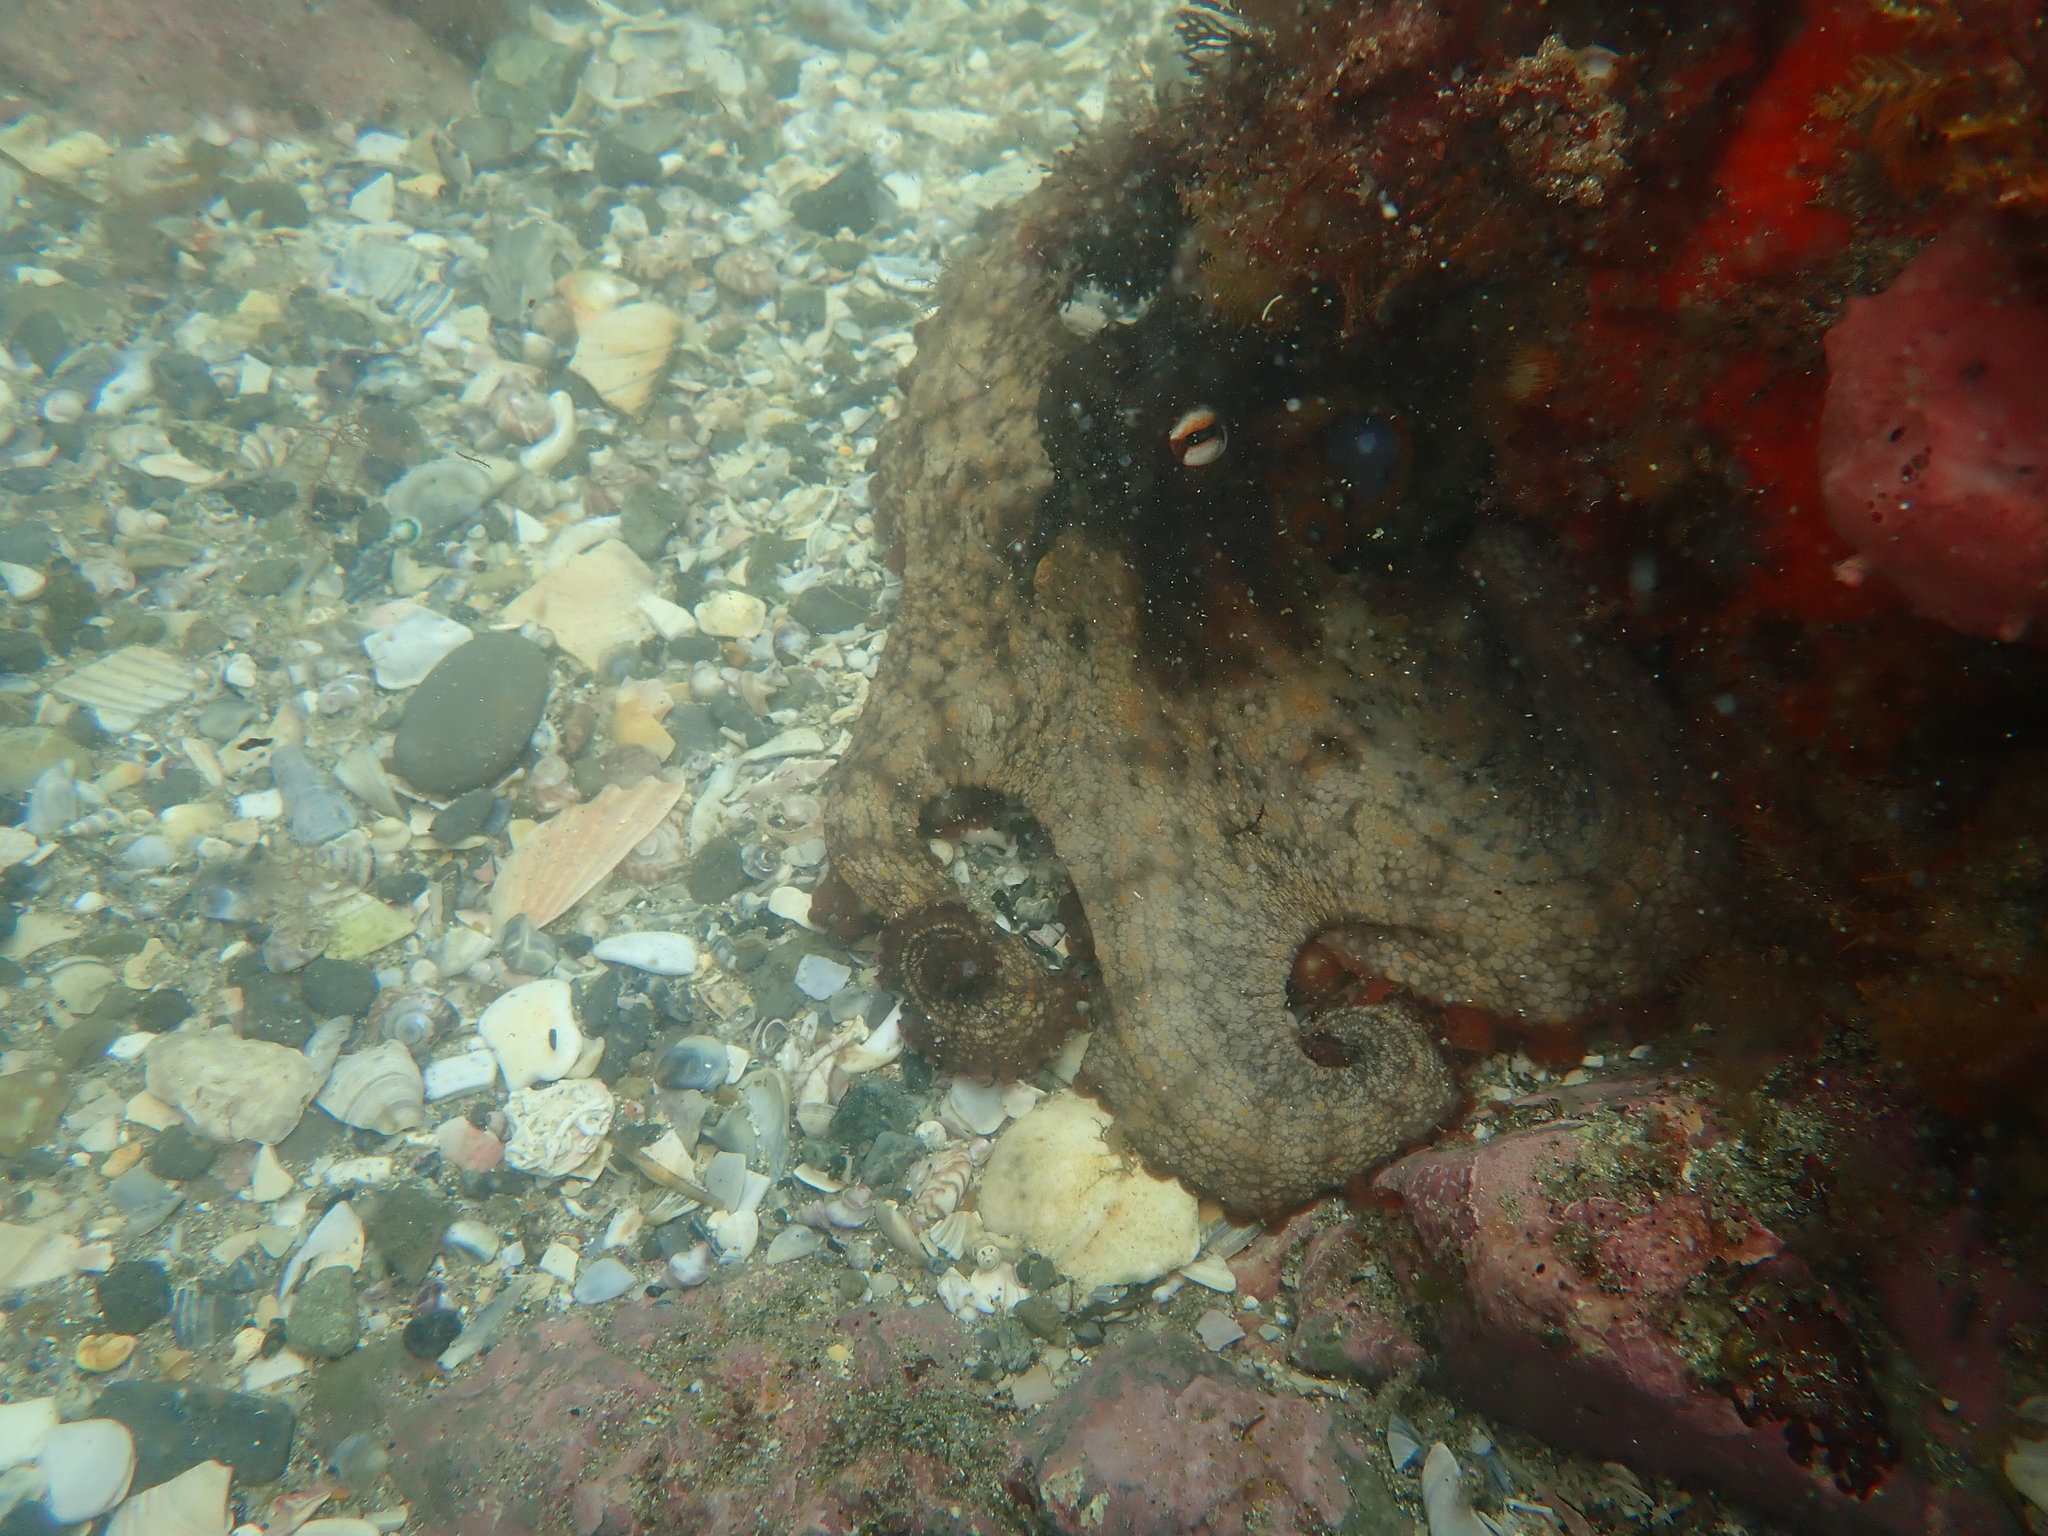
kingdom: Animalia
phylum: Mollusca
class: Cephalopoda
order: Octopoda
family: Octopodidae
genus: Octopus
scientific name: Octopus tetricus
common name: Sydney octopus
